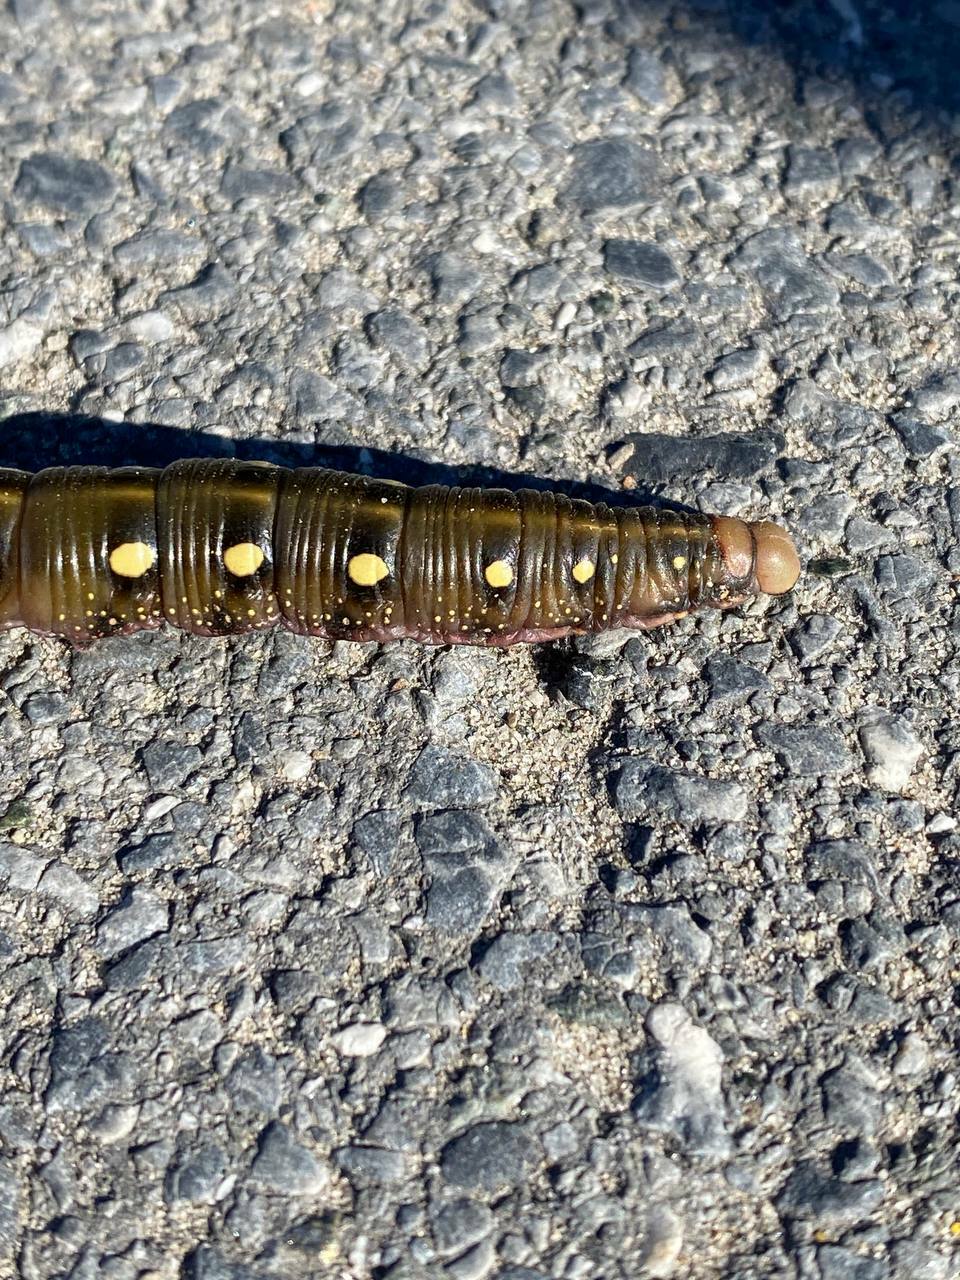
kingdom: Animalia
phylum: Arthropoda
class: Insecta
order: Lepidoptera
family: Sphingidae
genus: Hyles
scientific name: Hyles gallii
